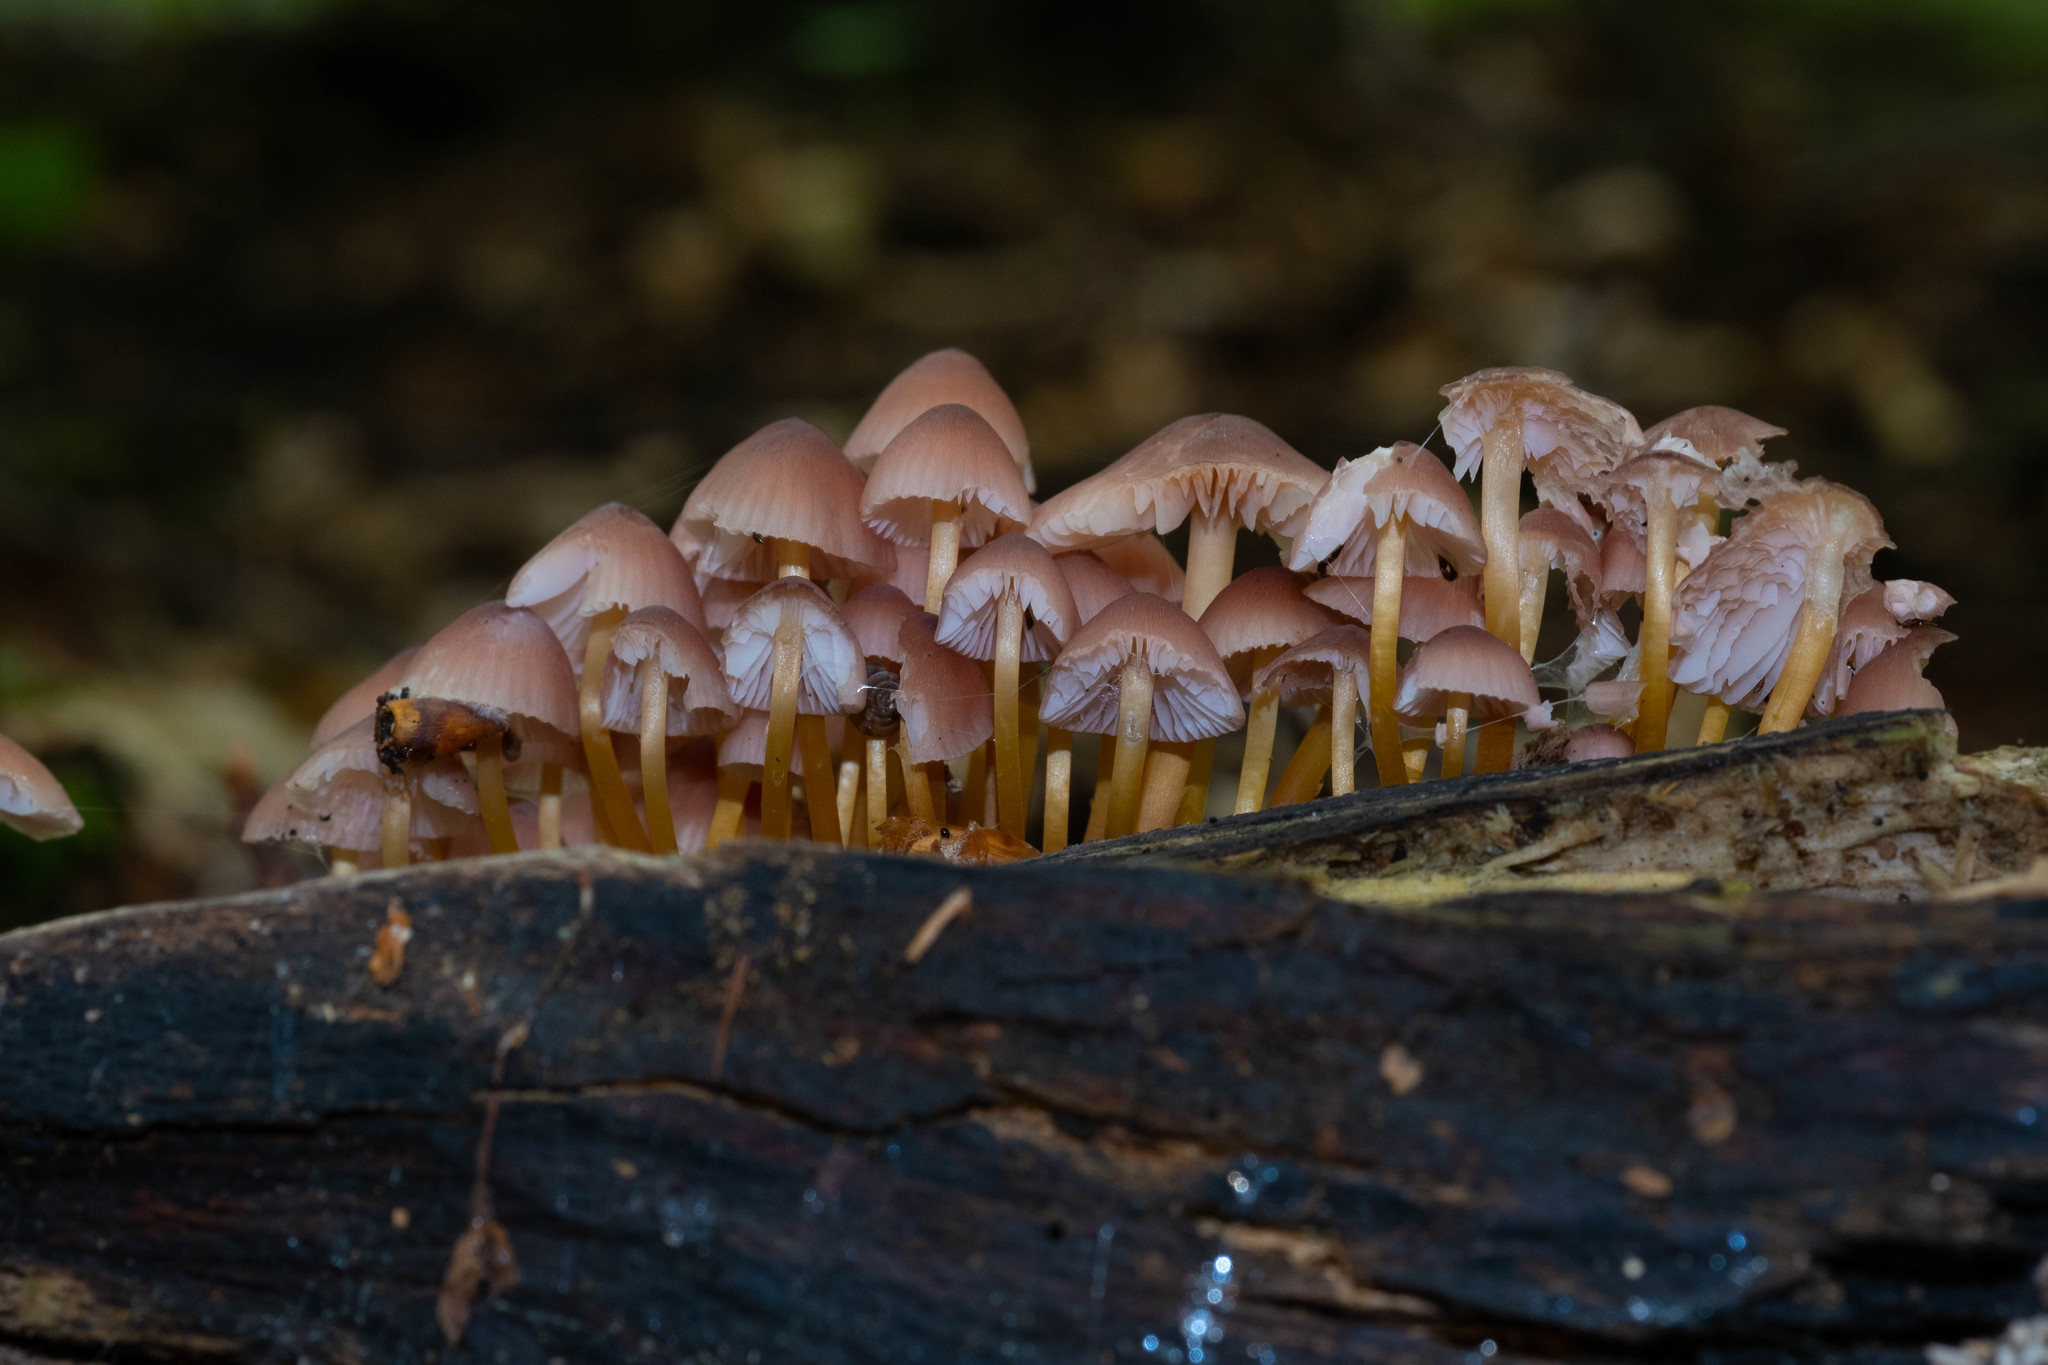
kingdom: Fungi
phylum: Basidiomycota
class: Agaricomycetes
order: Agaricales
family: Mycenaceae
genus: Mycena
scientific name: Mycena renati
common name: Beautiful bonnet
